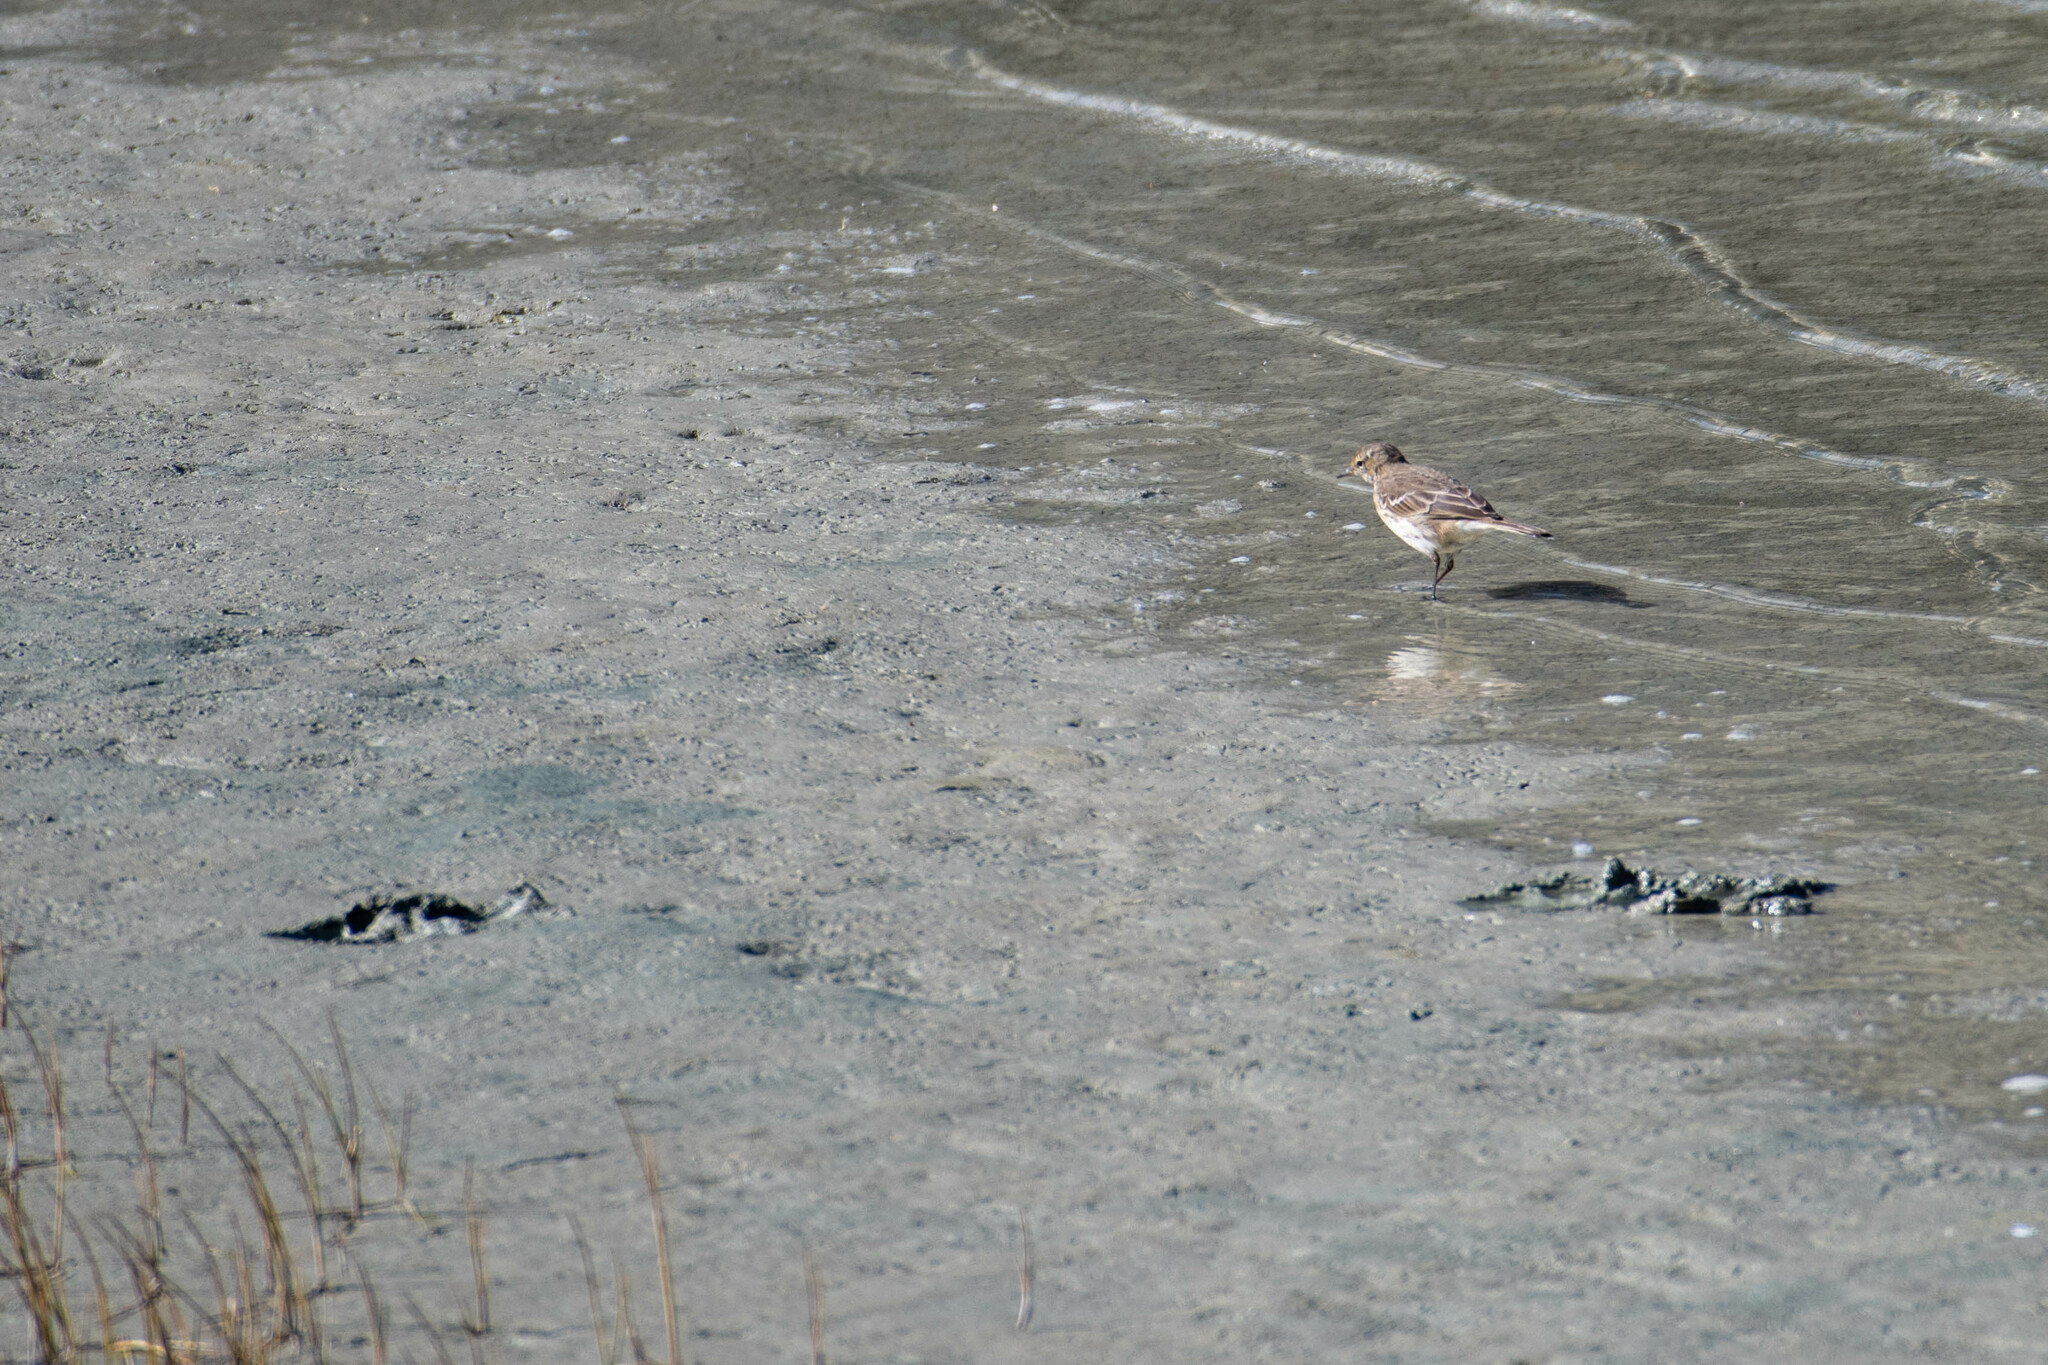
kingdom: Animalia
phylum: Chordata
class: Aves
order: Passeriformes
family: Motacillidae
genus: Anthus
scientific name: Anthus spinoletta
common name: Water pipit
